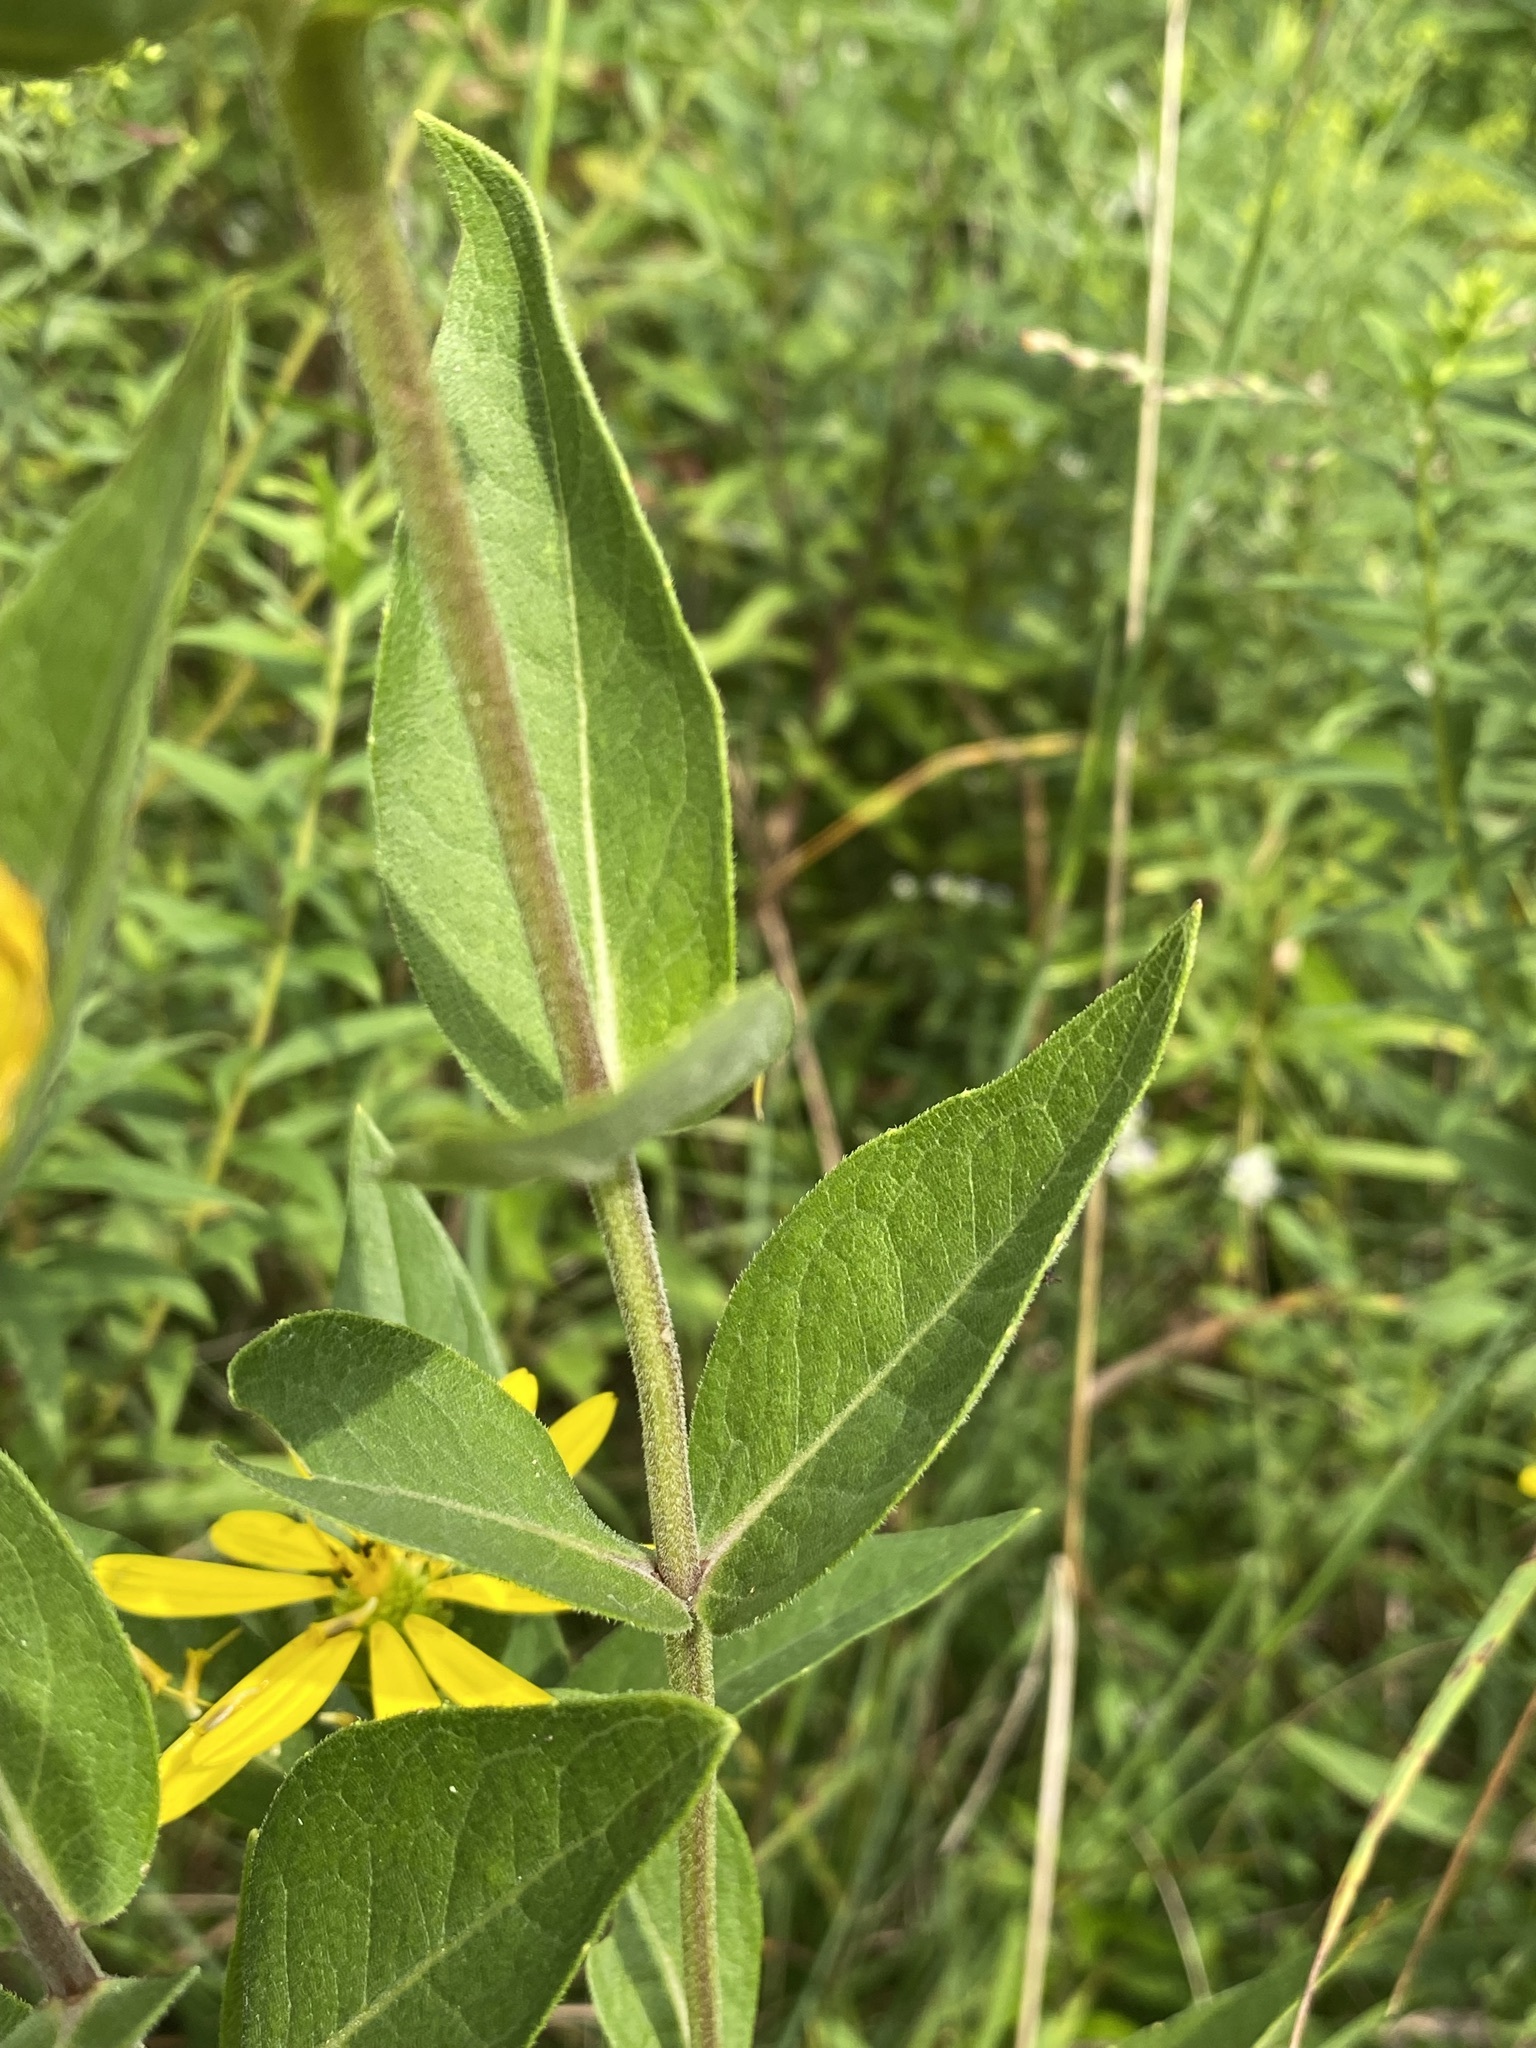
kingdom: Plantae
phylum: Tracheophyta
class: Magnoliopsida
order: Asterales
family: Asteraceae
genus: Silphium
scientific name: Silphium integrifolium
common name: Whole-leaf rosinweed
